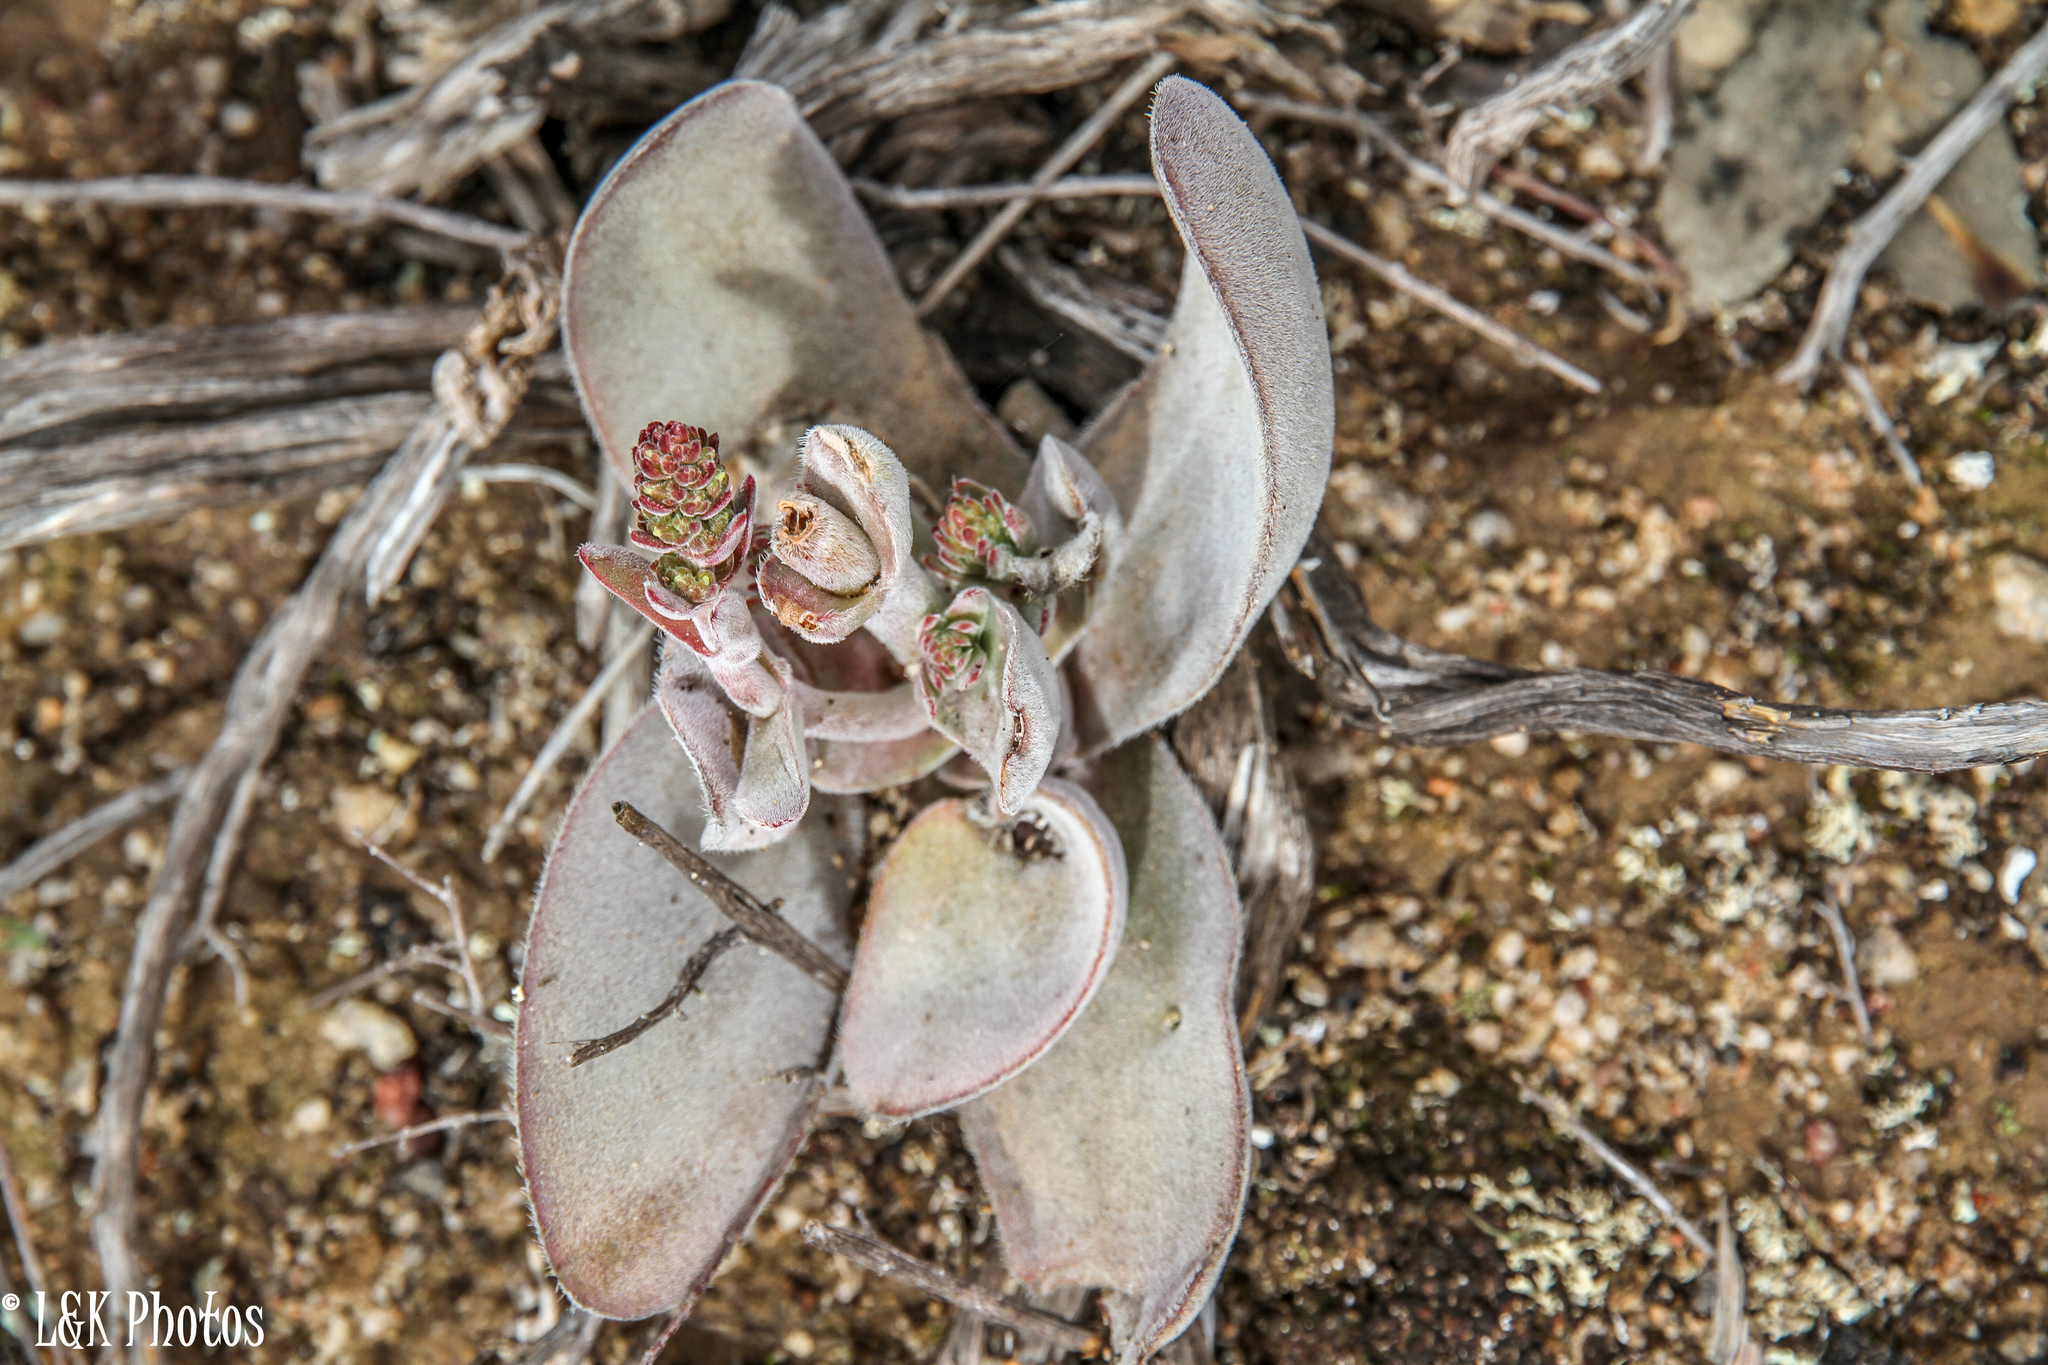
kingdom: Plantae
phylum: Tracheophyta
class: Magnoliopsida
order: Saxifragales
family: Crassulaceae
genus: Crassula
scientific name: Crassula cotyledonis
